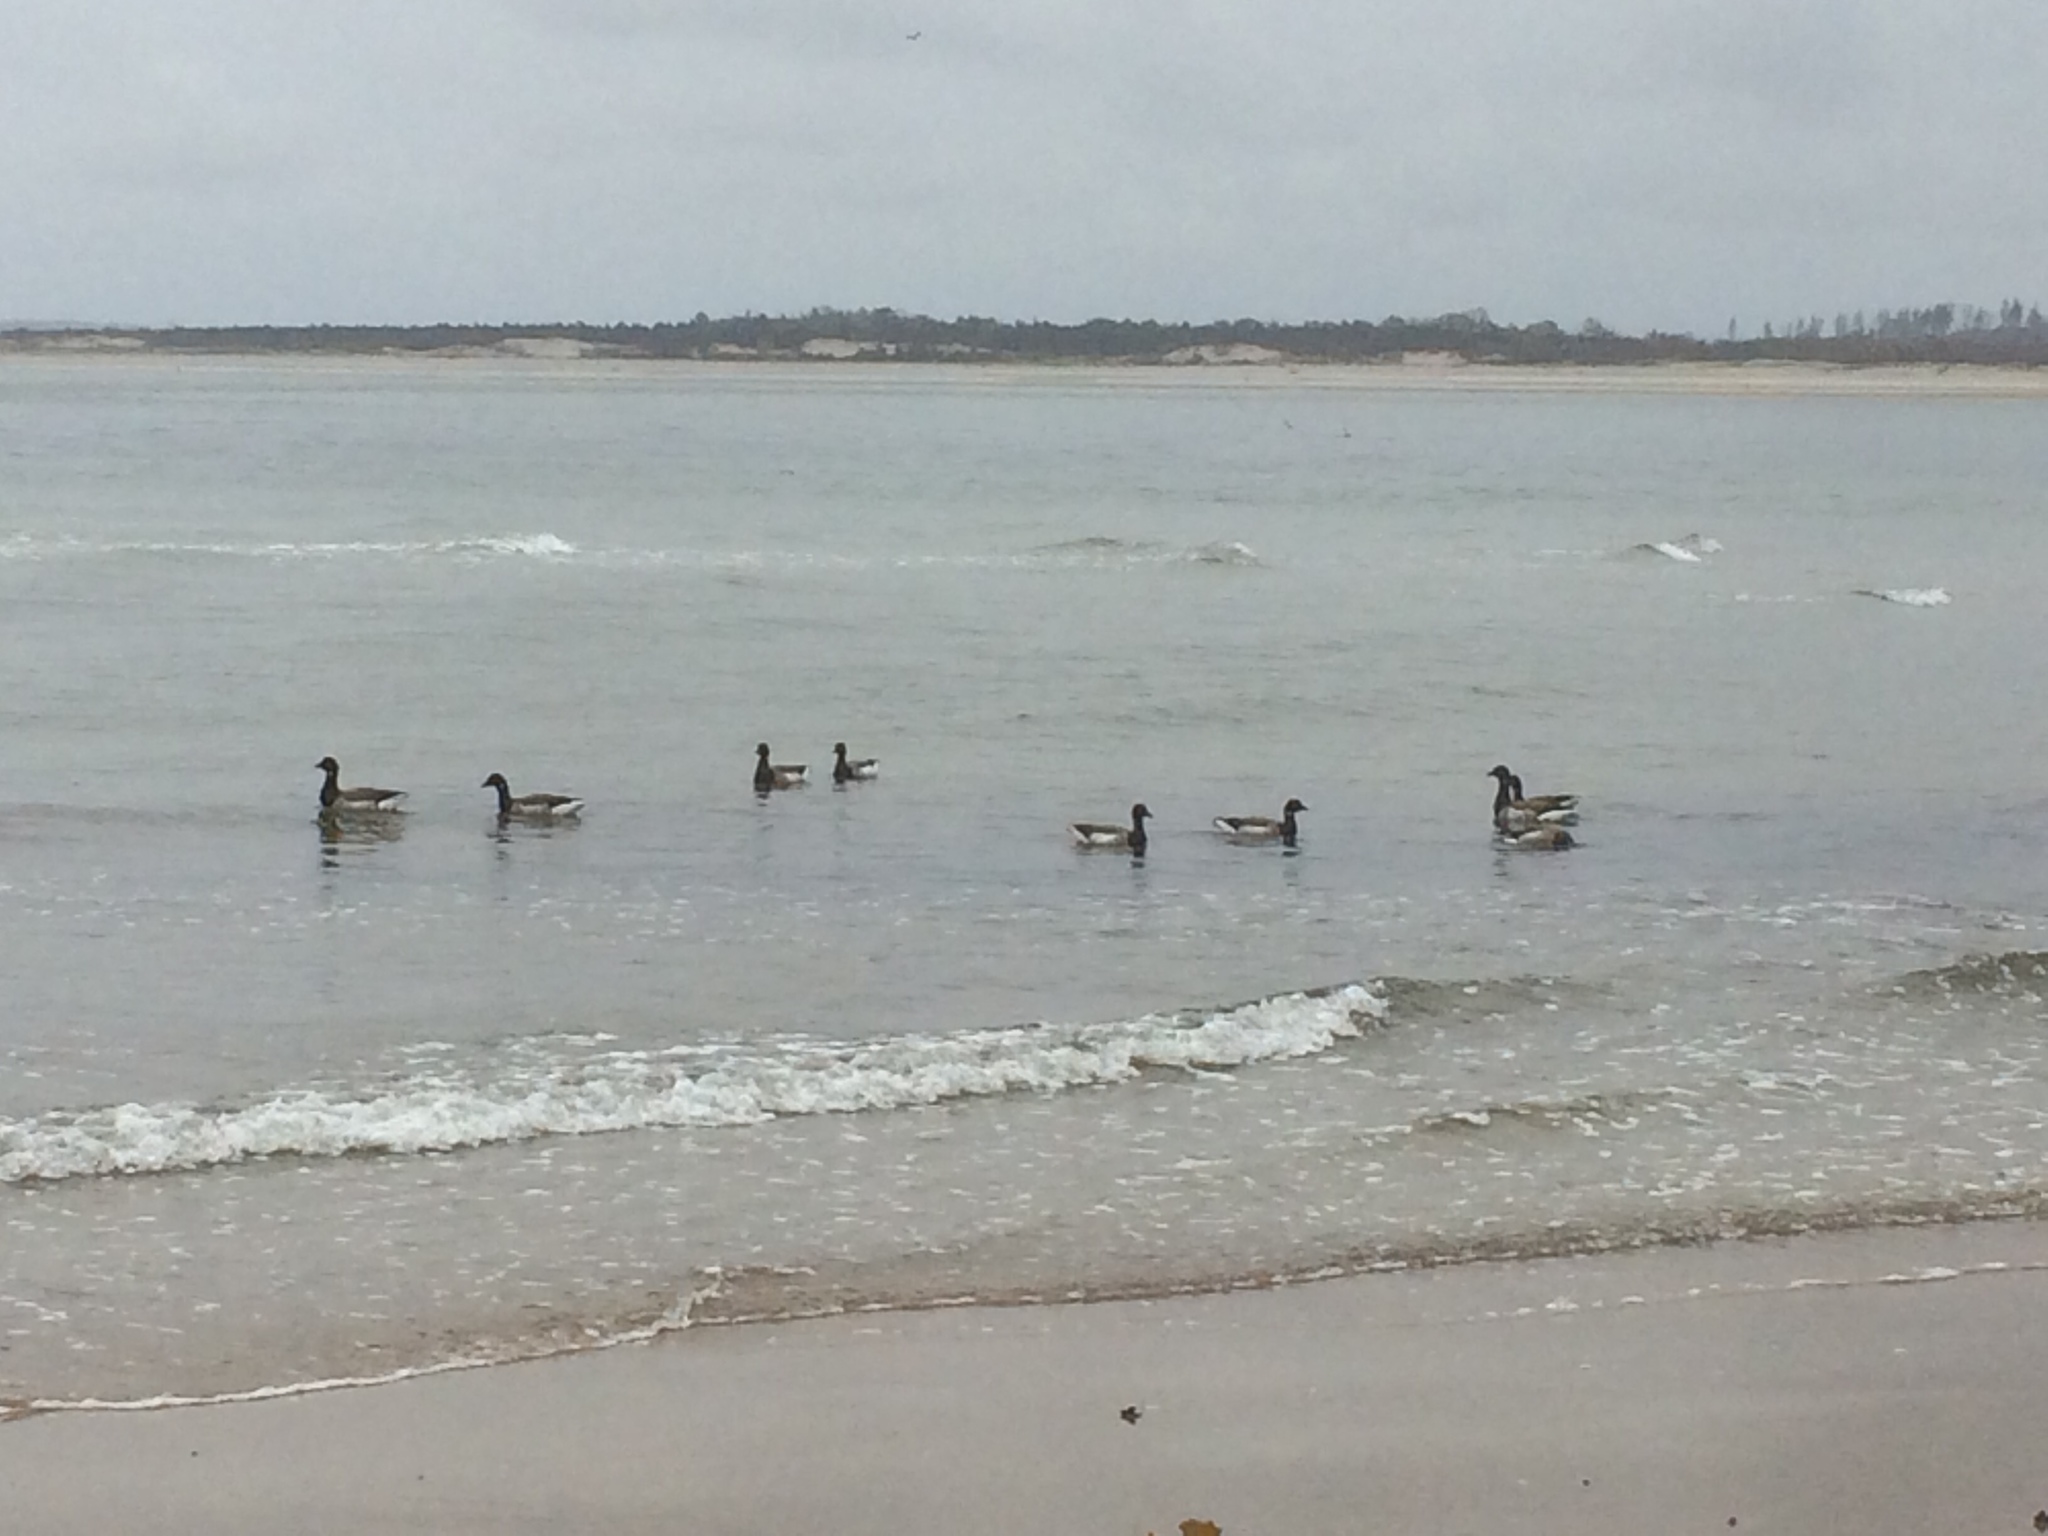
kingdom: Animalia
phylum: Chordata
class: Aves
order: Anseriformes
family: Anatidae
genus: Branta
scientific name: Branta bernicla
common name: Brant goose
